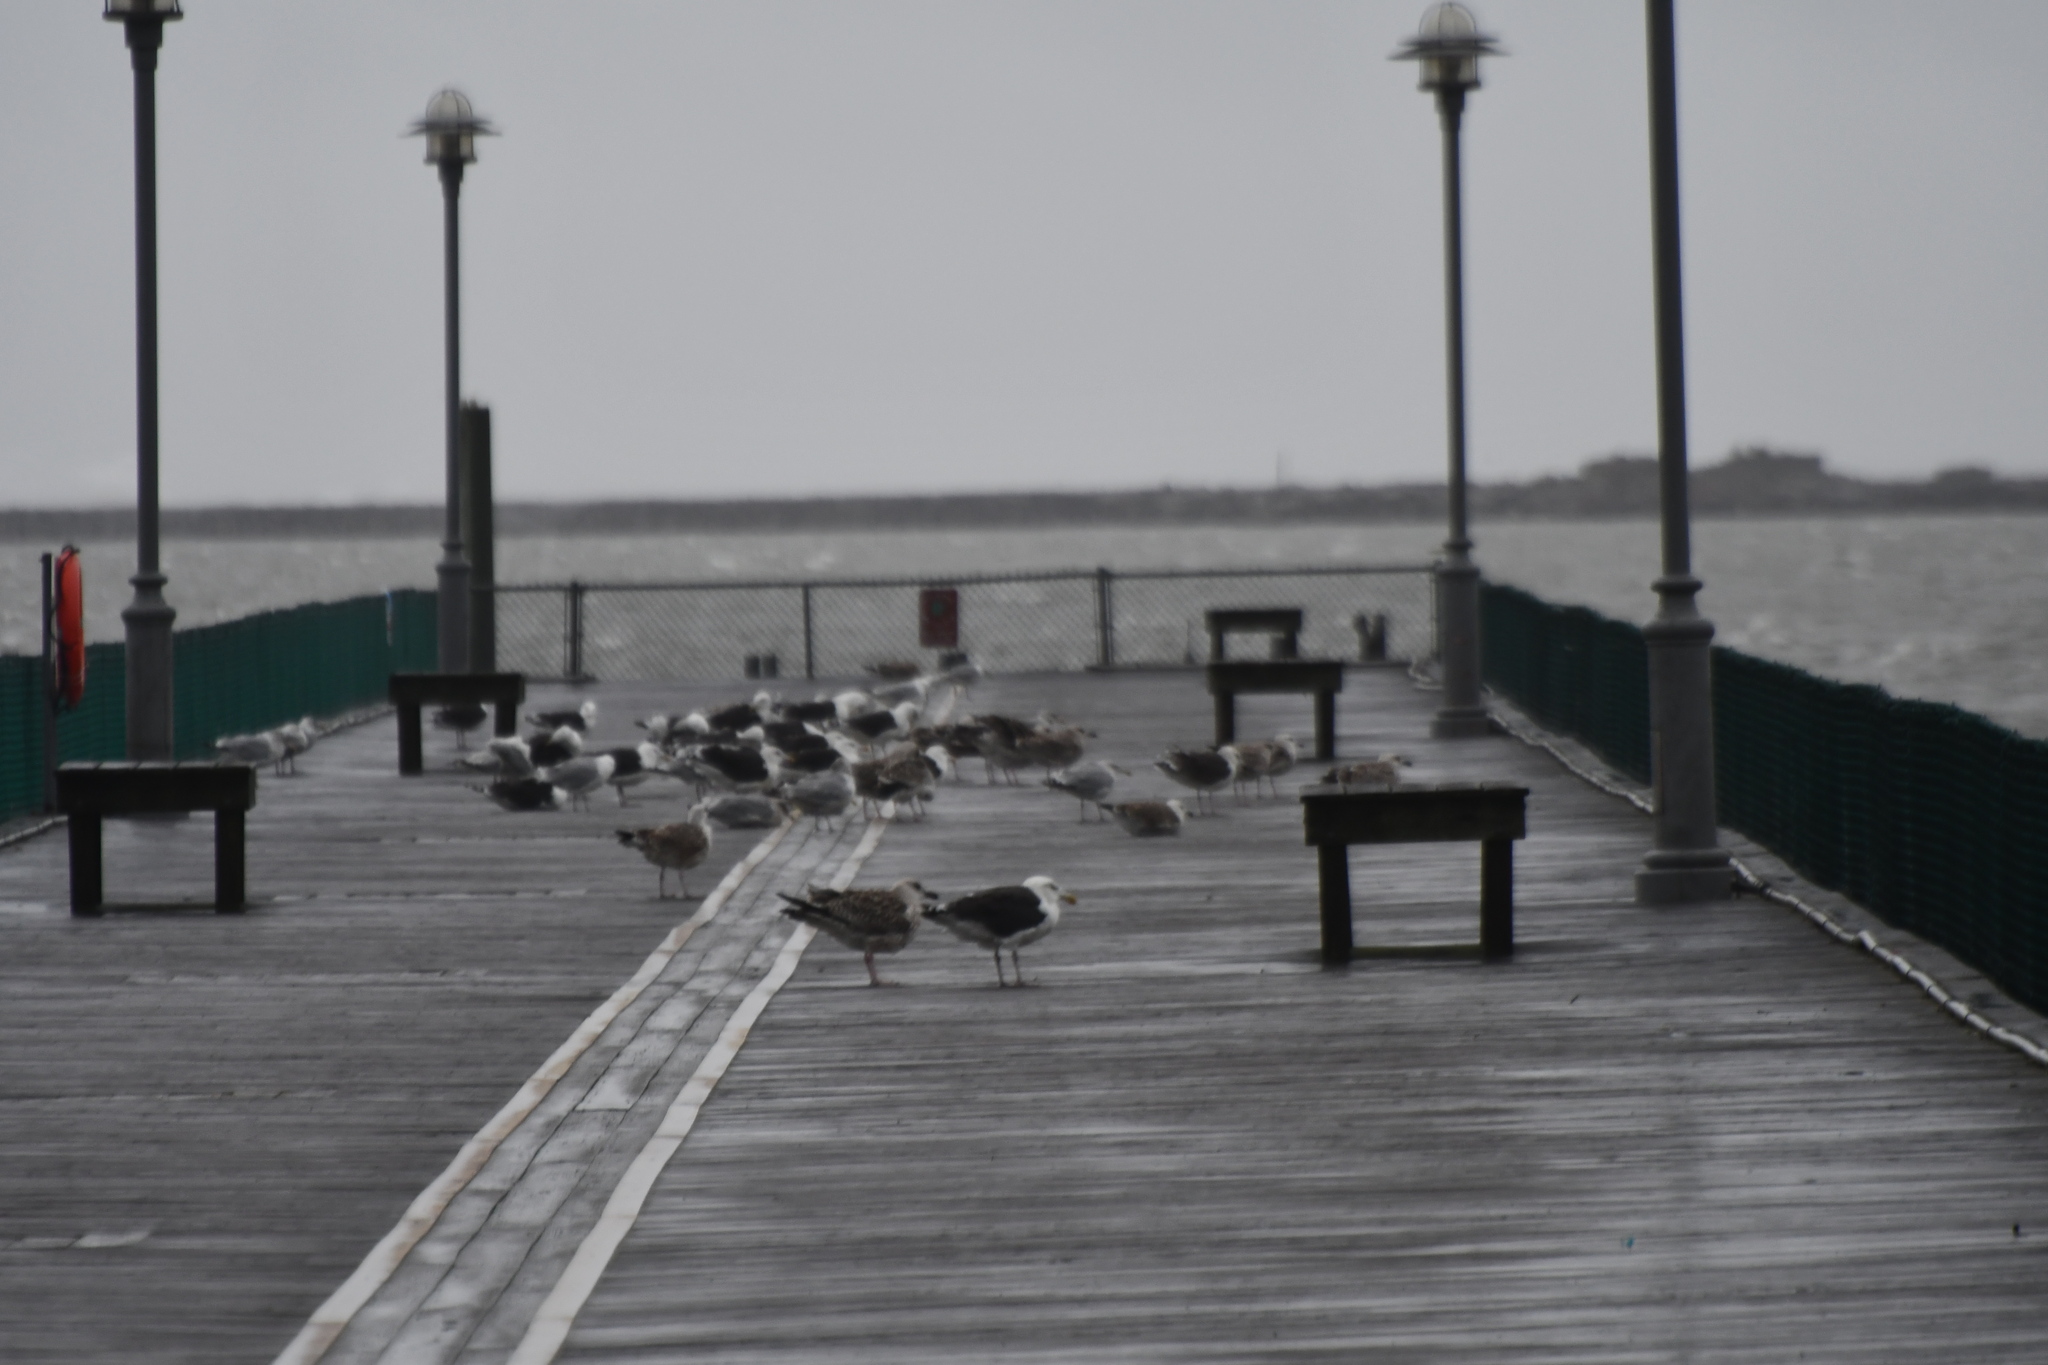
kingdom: Animalia
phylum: Chordata
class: Aves
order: Charadriiformes
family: Laridae
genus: Larus
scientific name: Larus marinus
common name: Great black-backed gull
